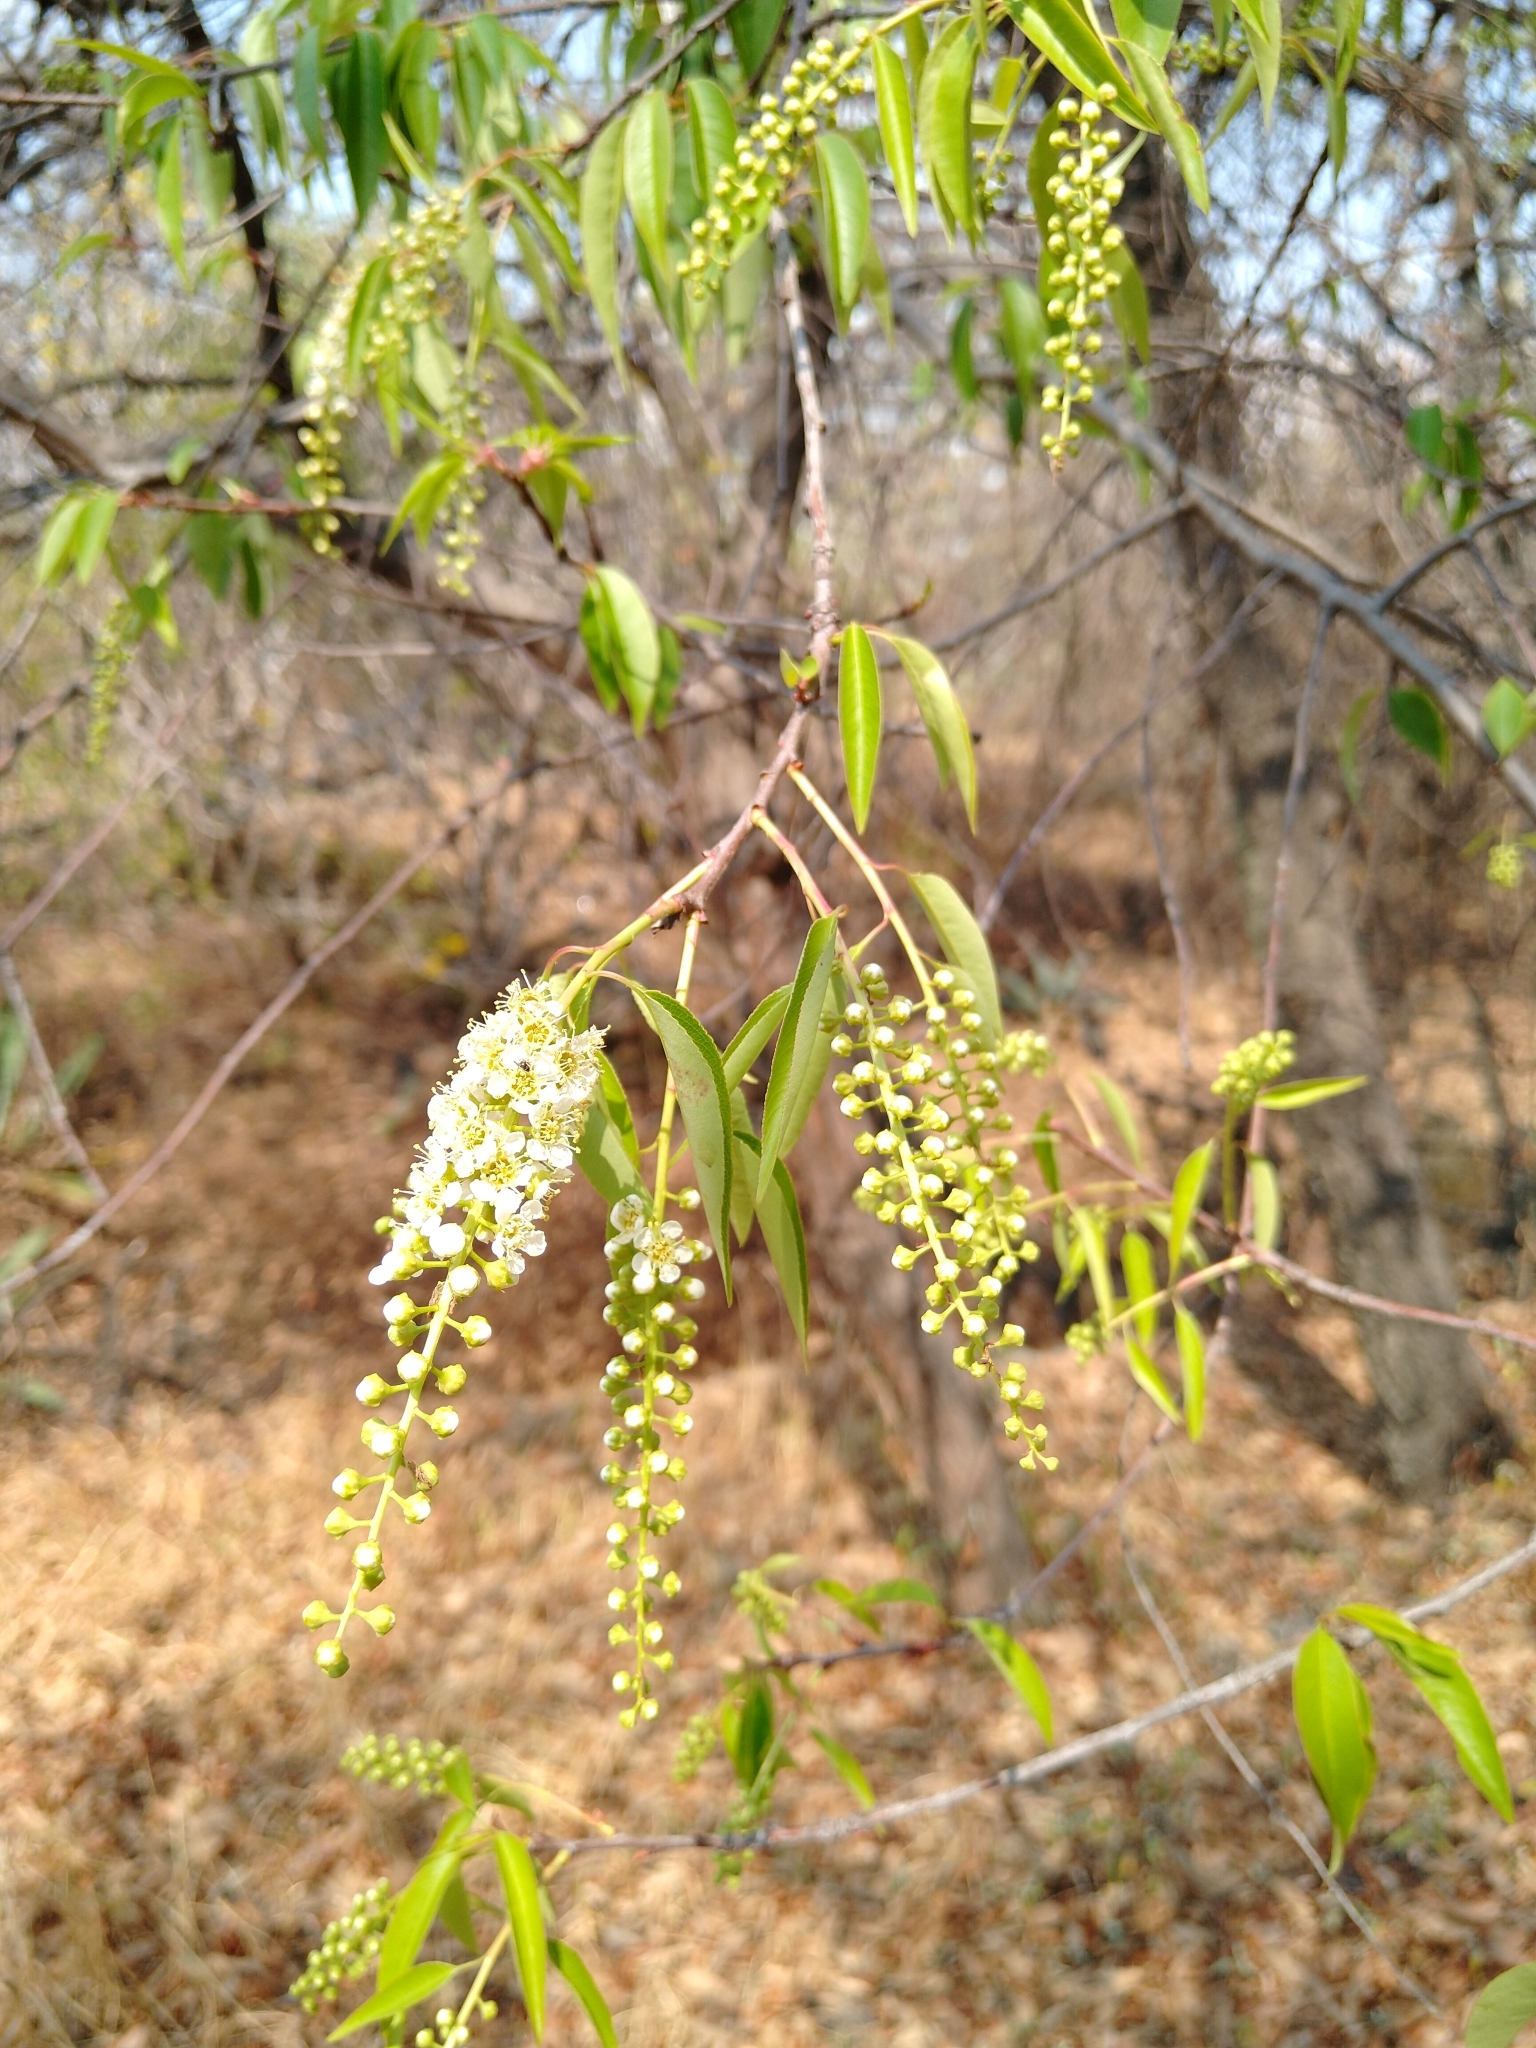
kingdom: Plantae
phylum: Tracheophyta
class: Magnoliopsida
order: Rosales
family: Rosaceae
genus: Prunus
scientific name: Prunus serotina
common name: Black cherry
